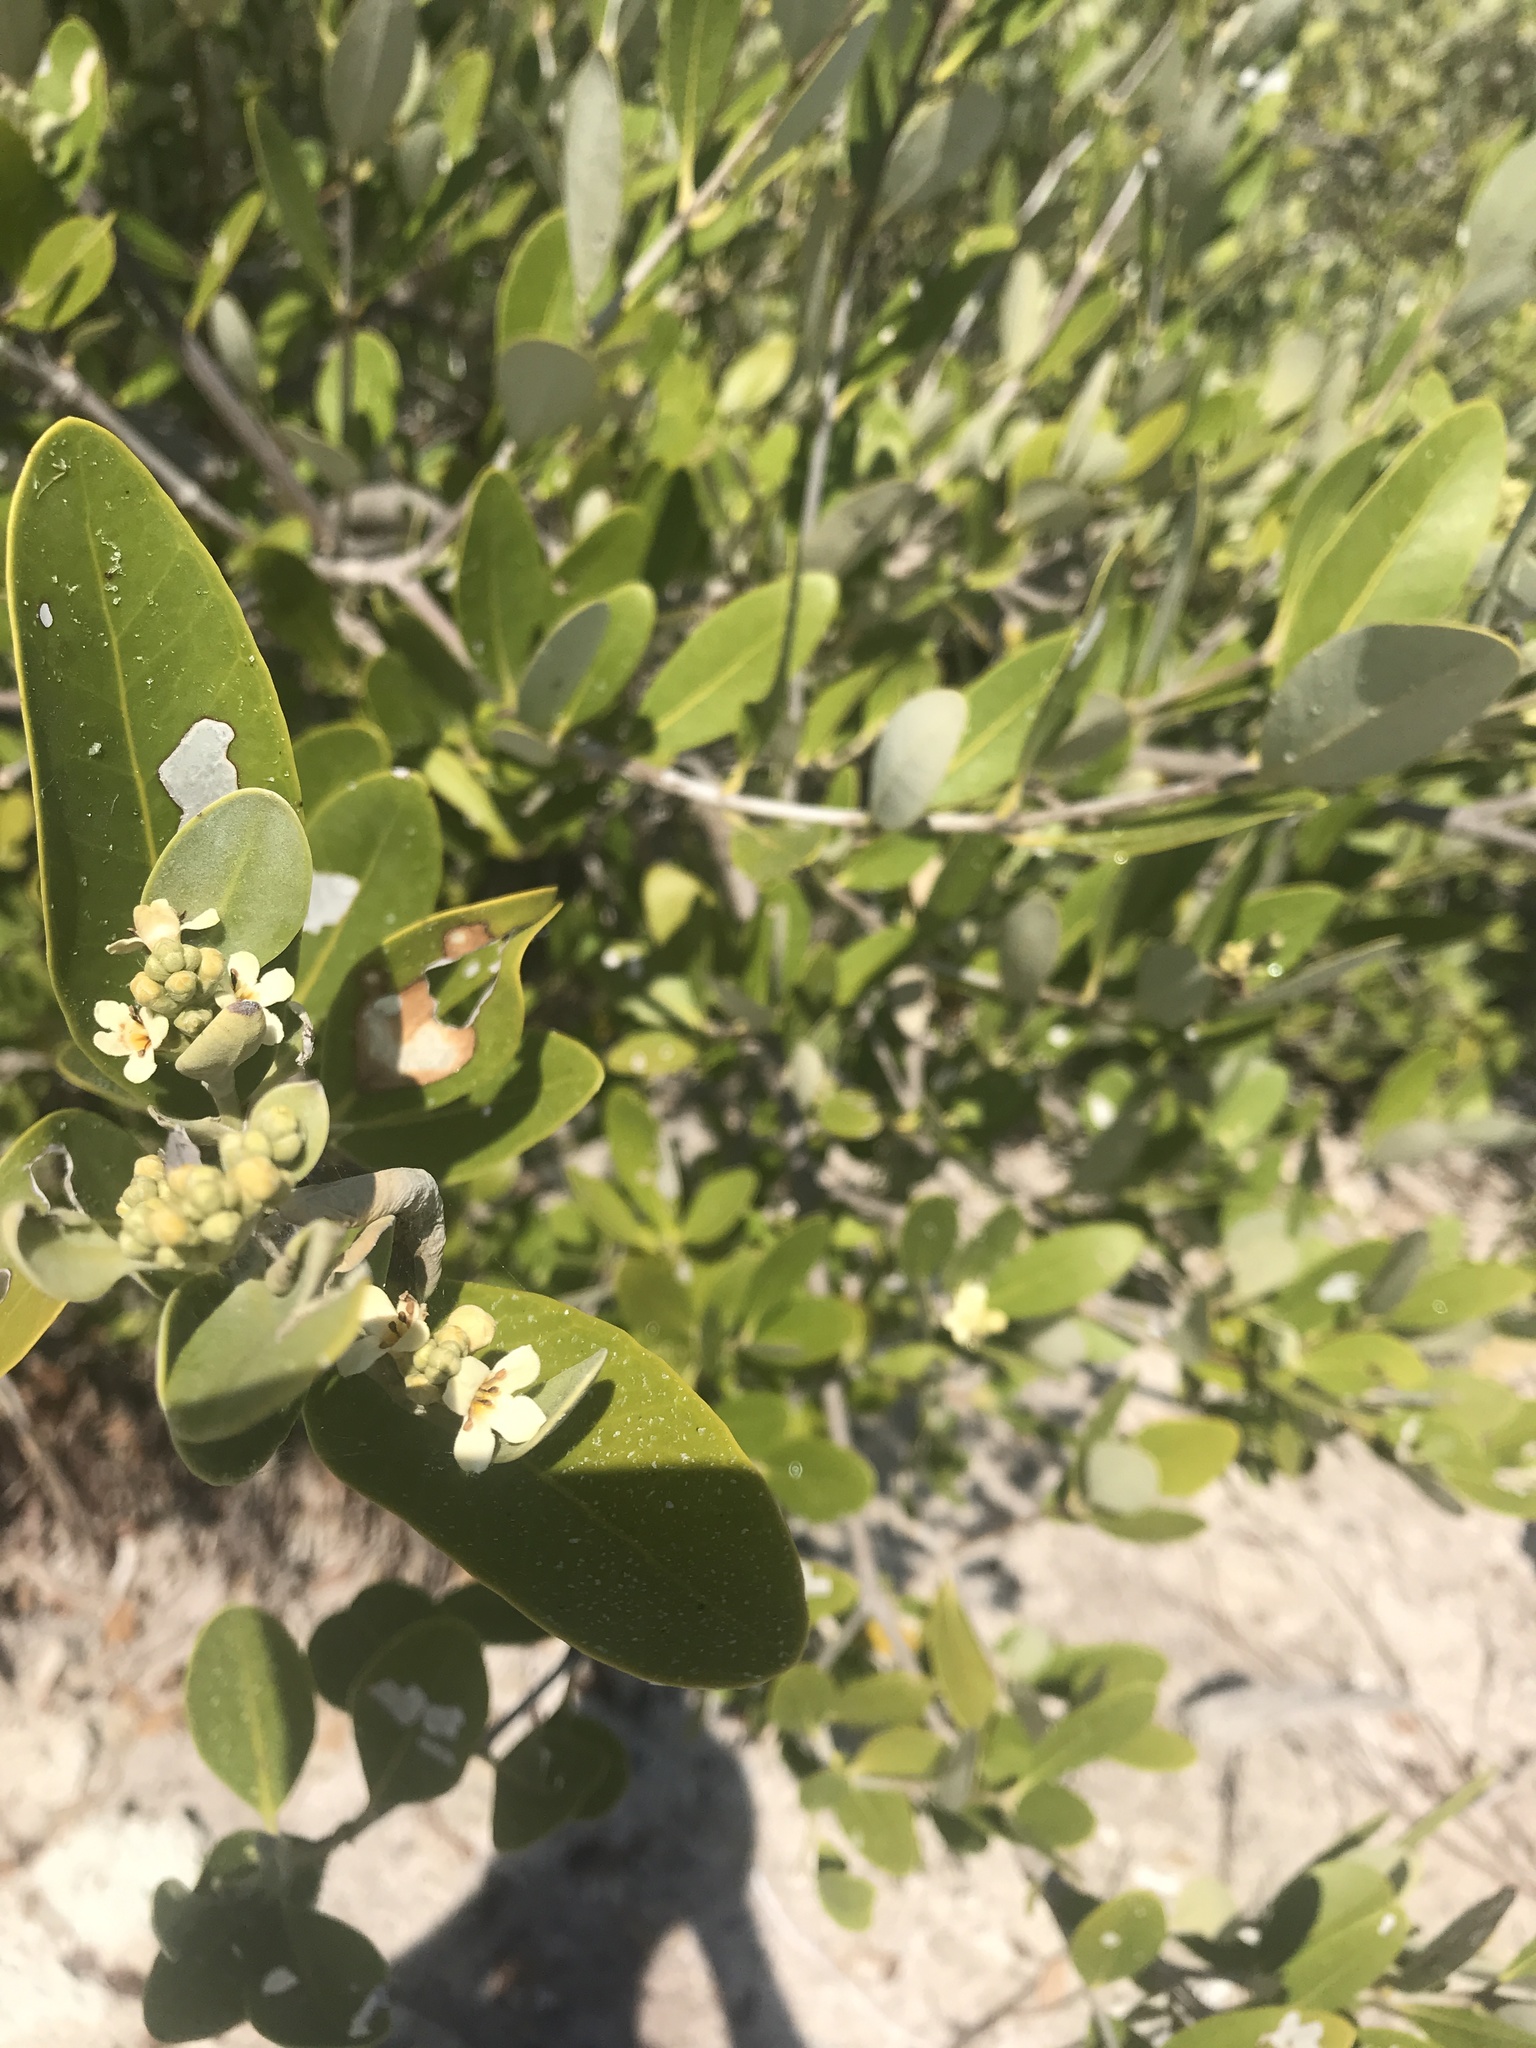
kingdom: Plantae
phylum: Tracheophyta
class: Magnoliopsida
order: Lamiales
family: Acanthaceae
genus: Avicennia
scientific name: Avicennia germinans
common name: Black mangrove
